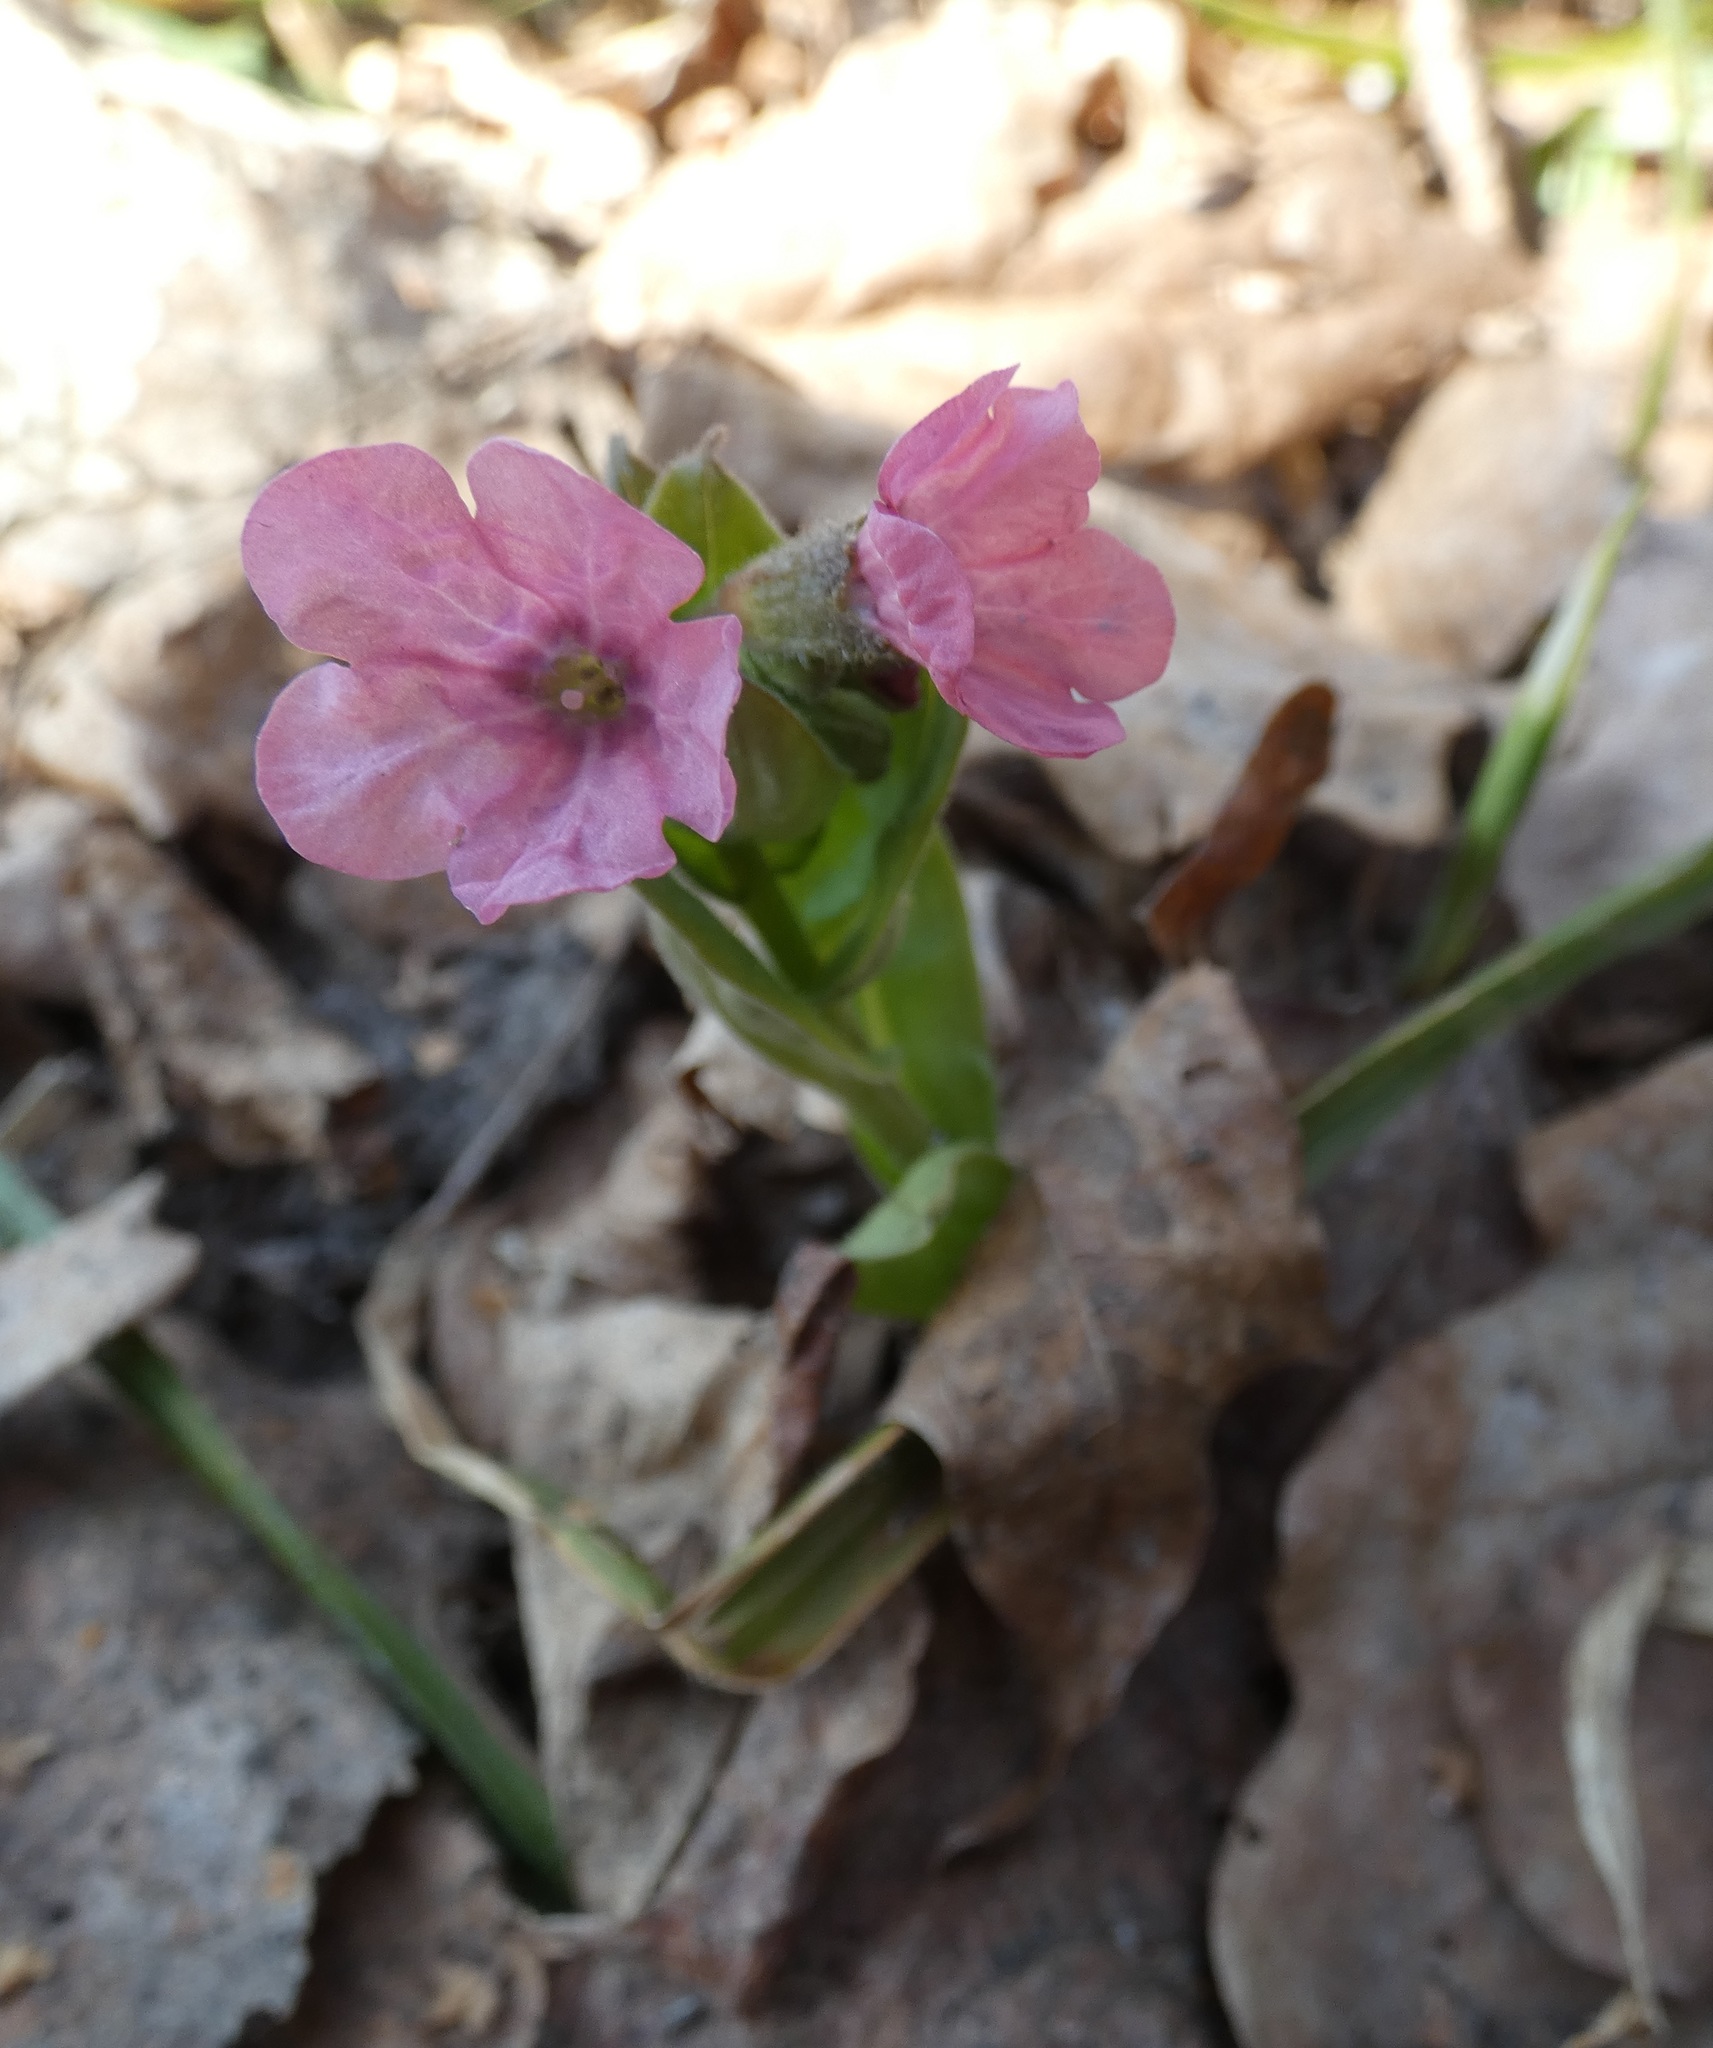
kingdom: Plantae
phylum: Tracheophyta
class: Magnoliopsida
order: Boraginales
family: Boraginaceae
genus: Pulmonaria
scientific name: Pulmonaria obscura
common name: Suffolk lungwort
